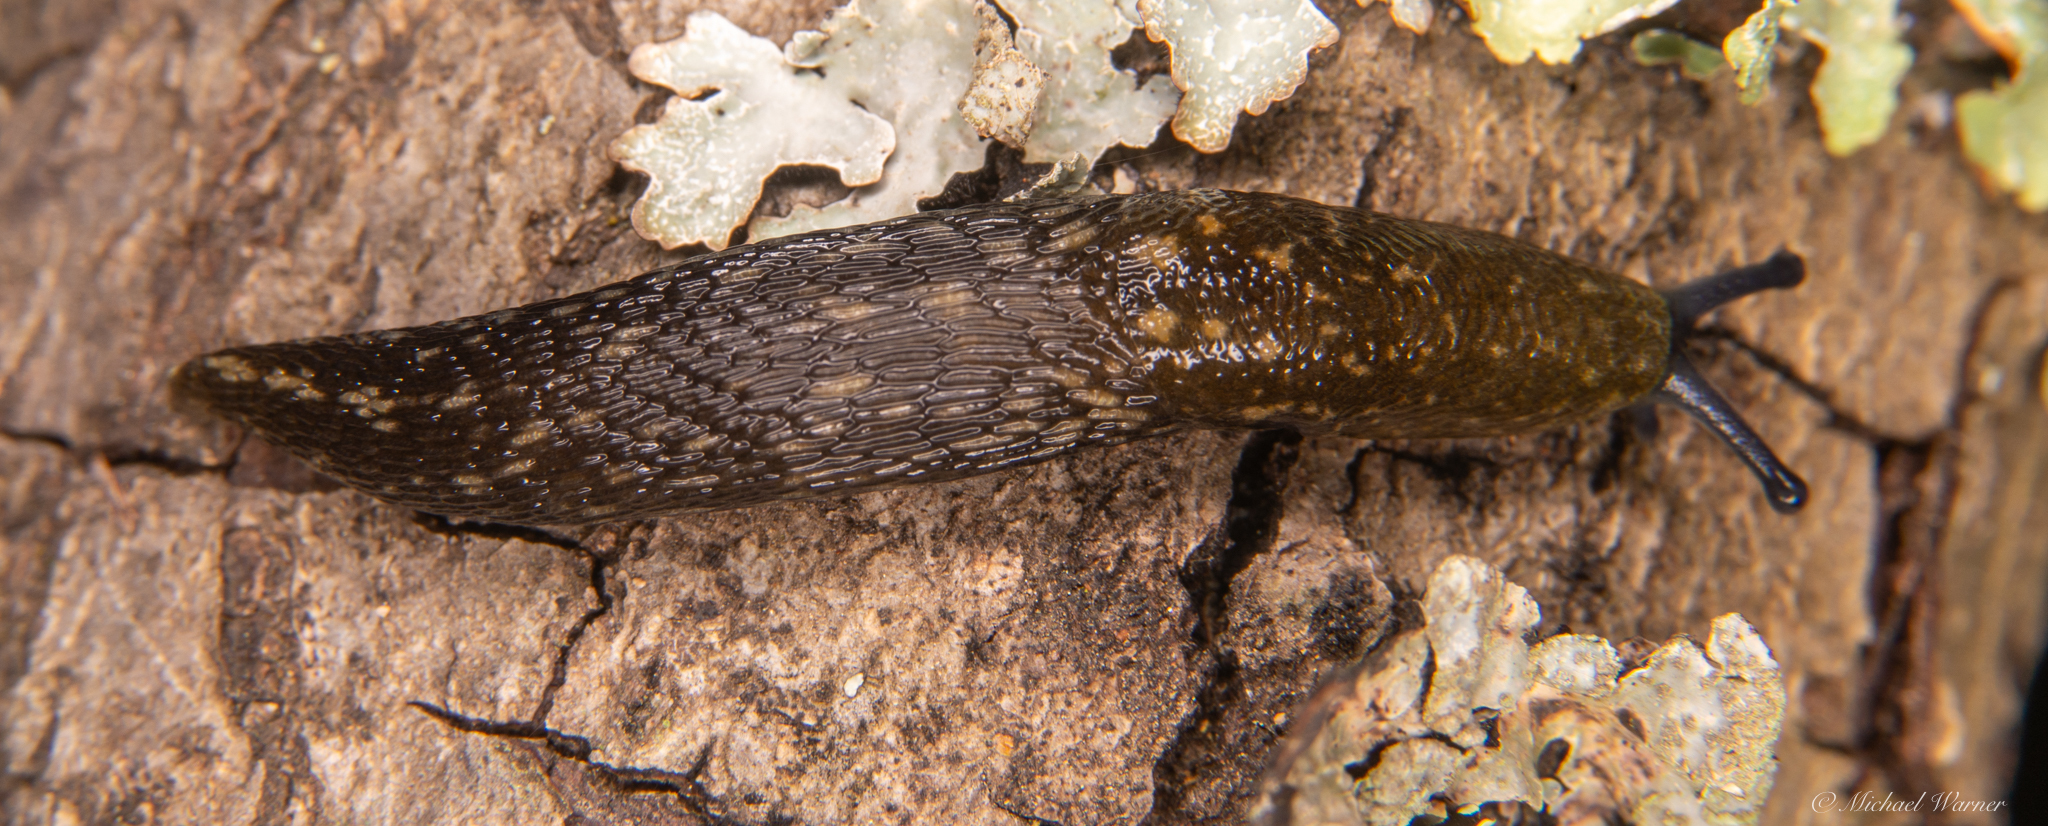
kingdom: Animalia
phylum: Mollusca
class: Gastropoda
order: Stylommatophora
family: Limacidae
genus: Limacus
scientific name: Limacus flavus
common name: Yellow gardenslug
